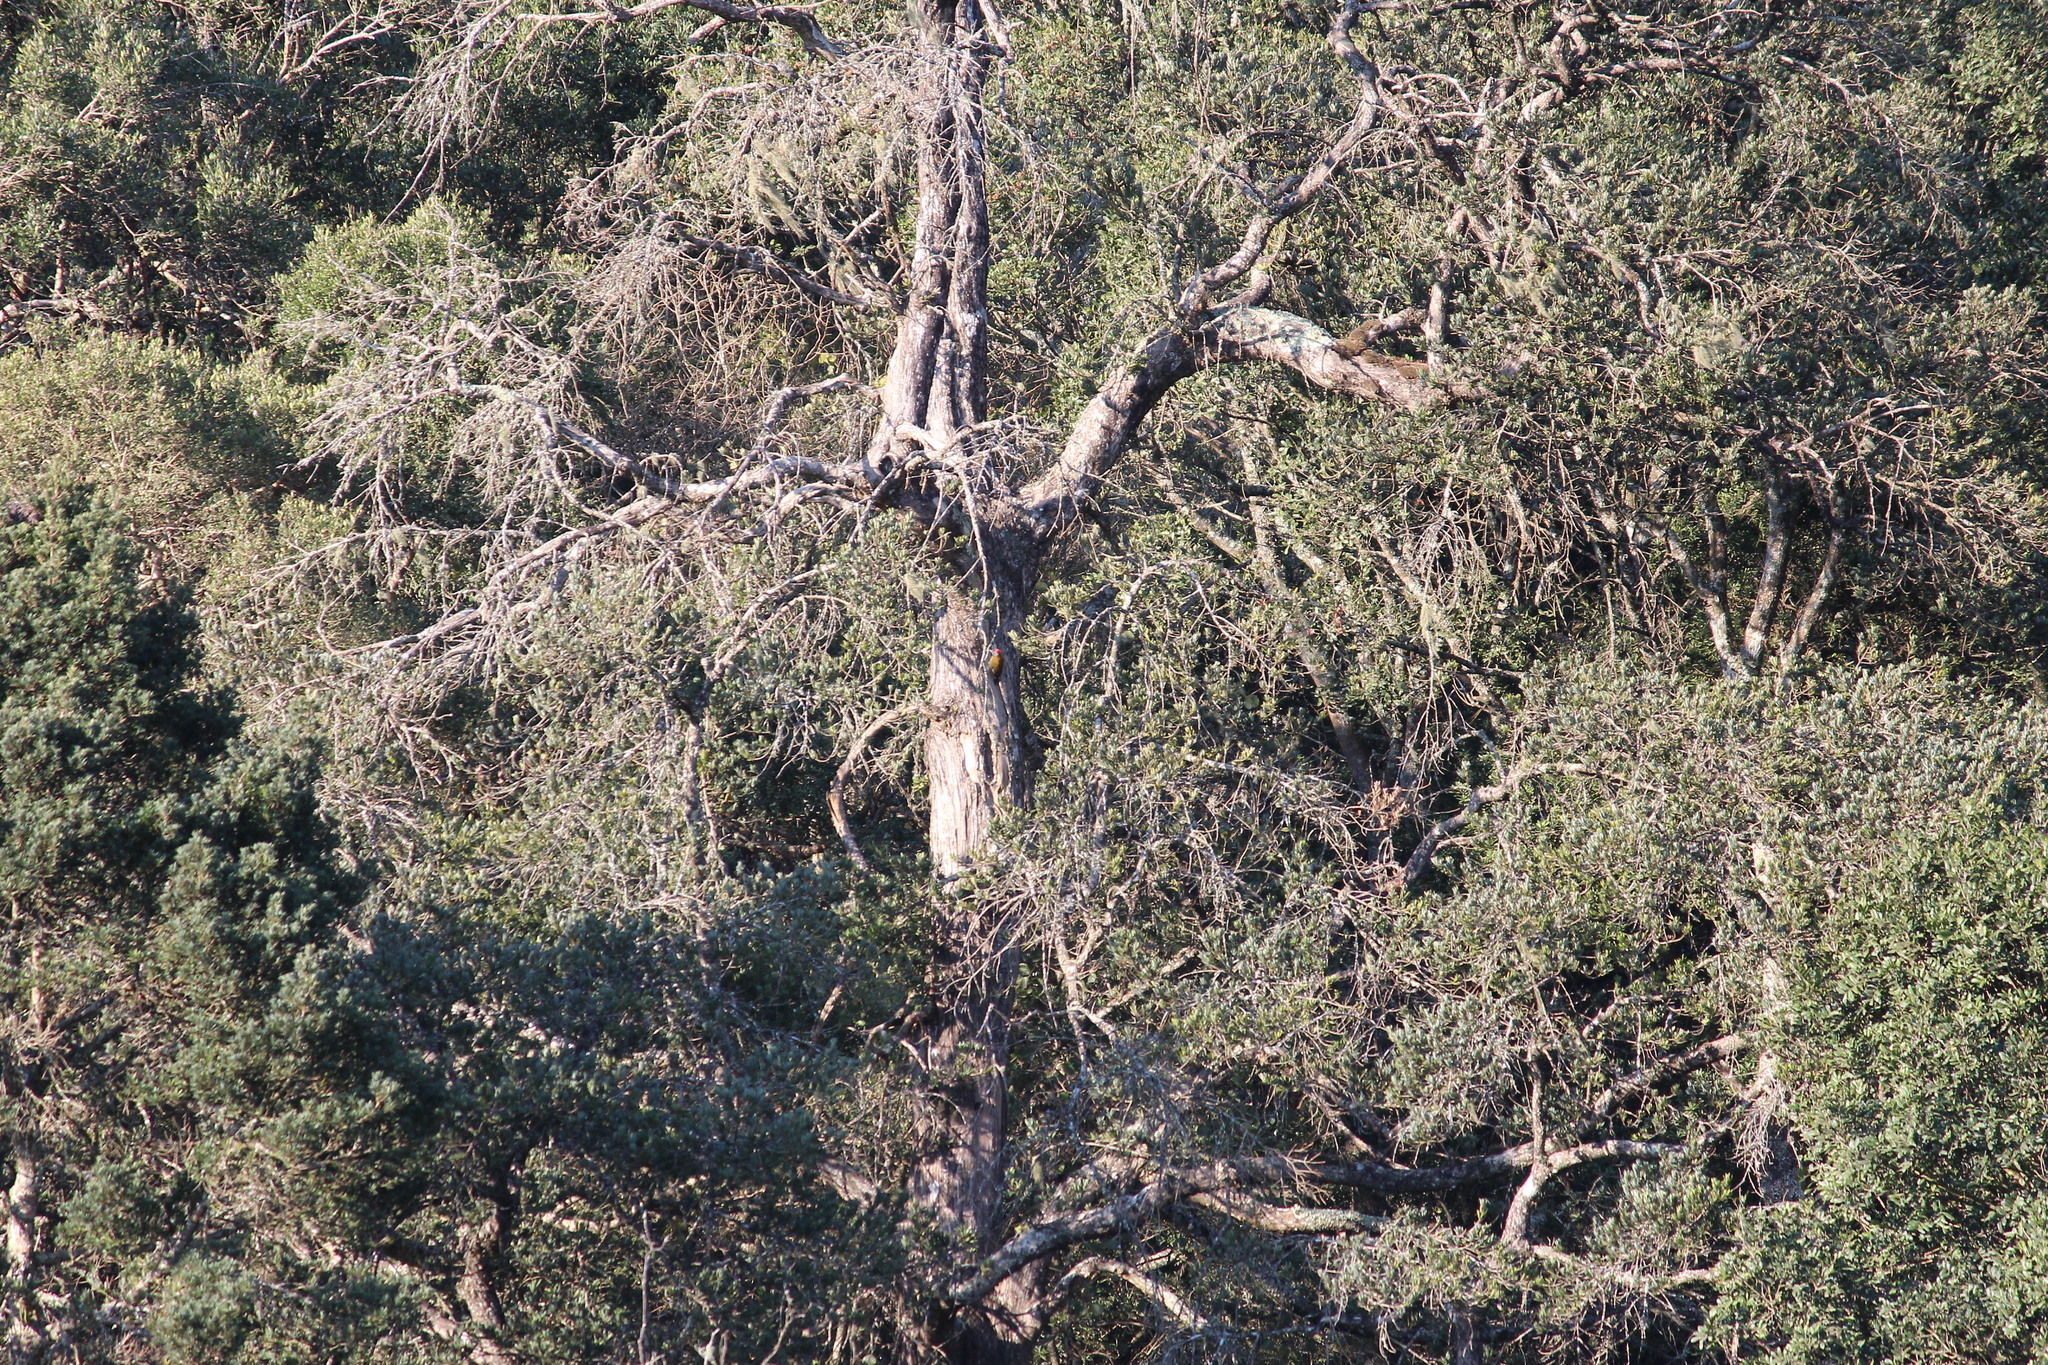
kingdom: Animalia
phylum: Chordata
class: Aves
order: Piciformes
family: Picidae
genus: Dendropicos
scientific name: Dendropicos griseocephalus
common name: Olive woodpecker
